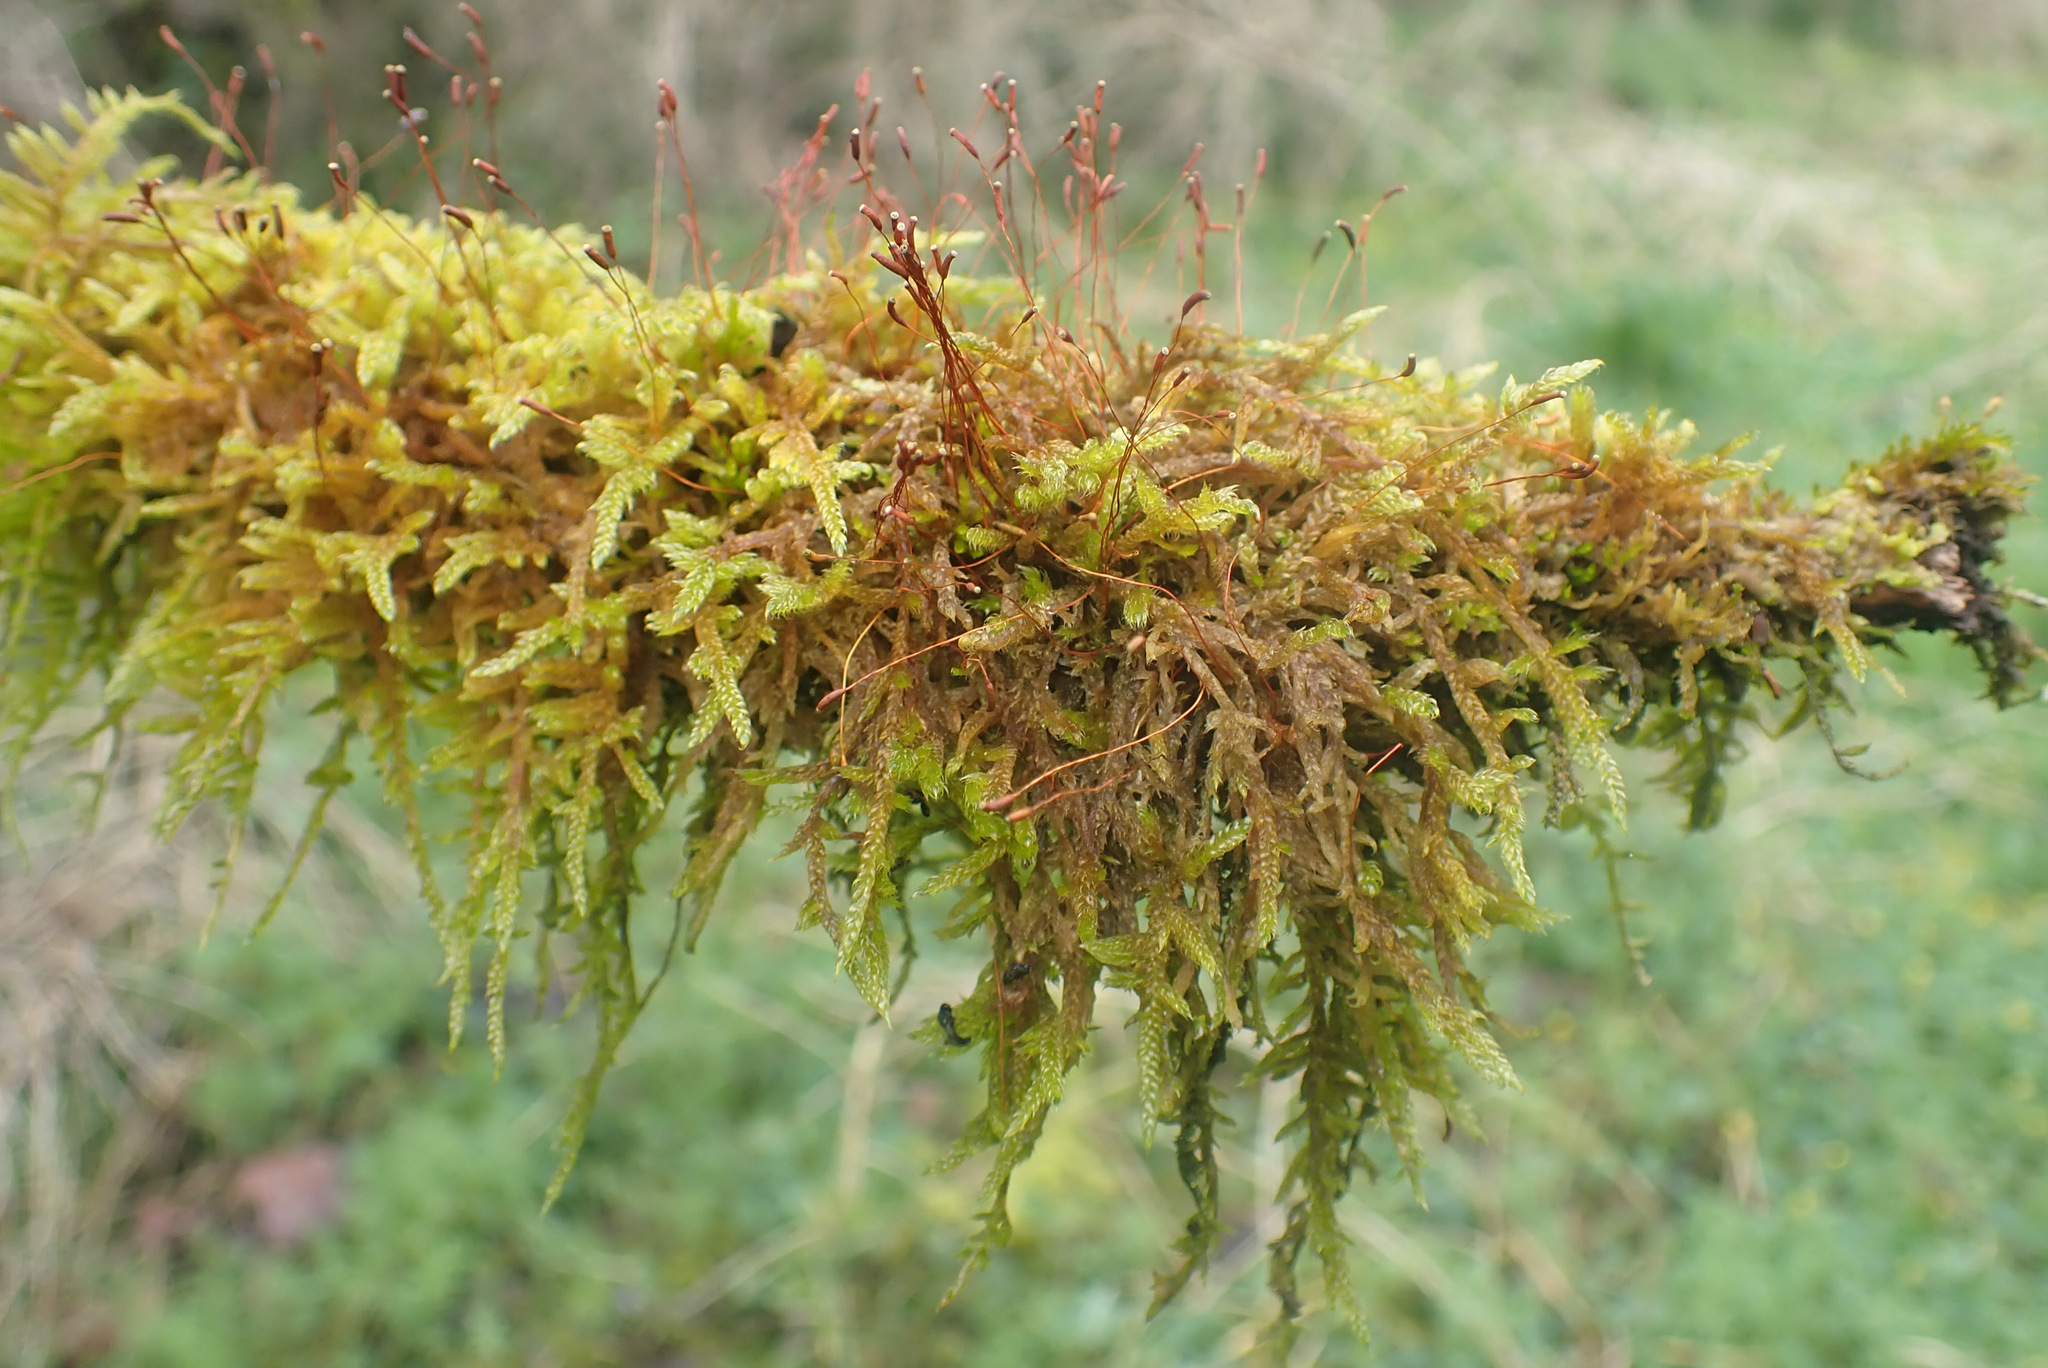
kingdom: Plantae
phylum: Bryophyta
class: Bryopsida
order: Hypnales
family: Hypnaceae
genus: Hypnum
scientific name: Hypnum cupressiforme
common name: Cypress-leaved plait-moss
